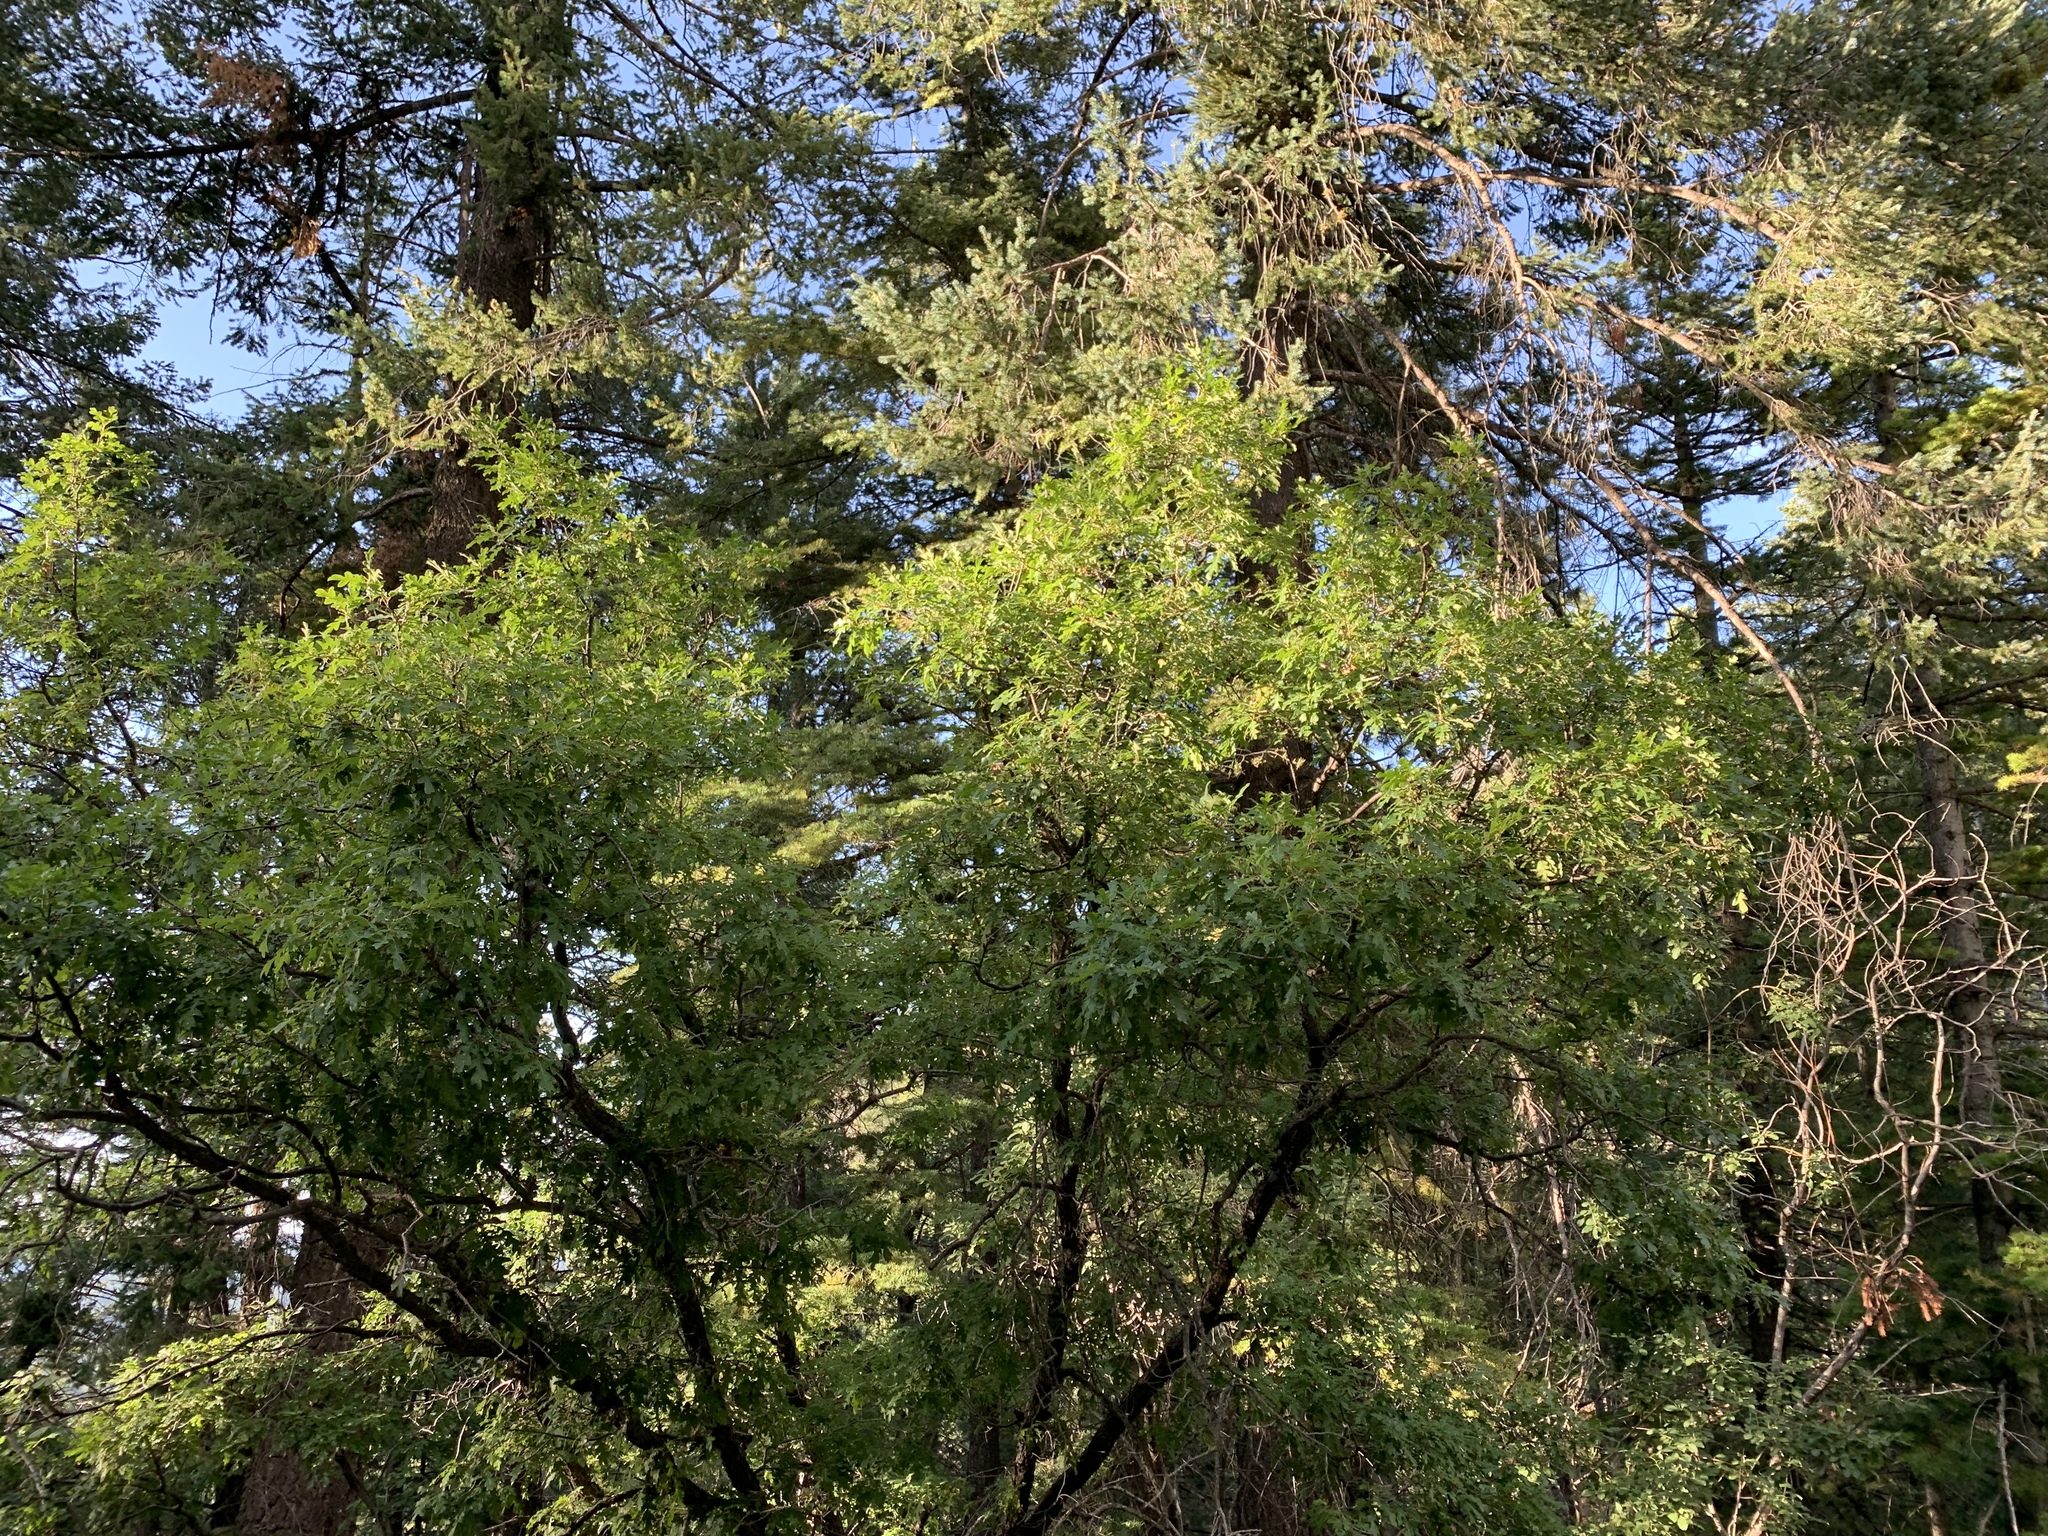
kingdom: Plantae
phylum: Tracheophyta
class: Magnoliopsida
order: Fagales
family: Fagaceae
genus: Quercus
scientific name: Quercus gambelii
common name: Gambel oak
